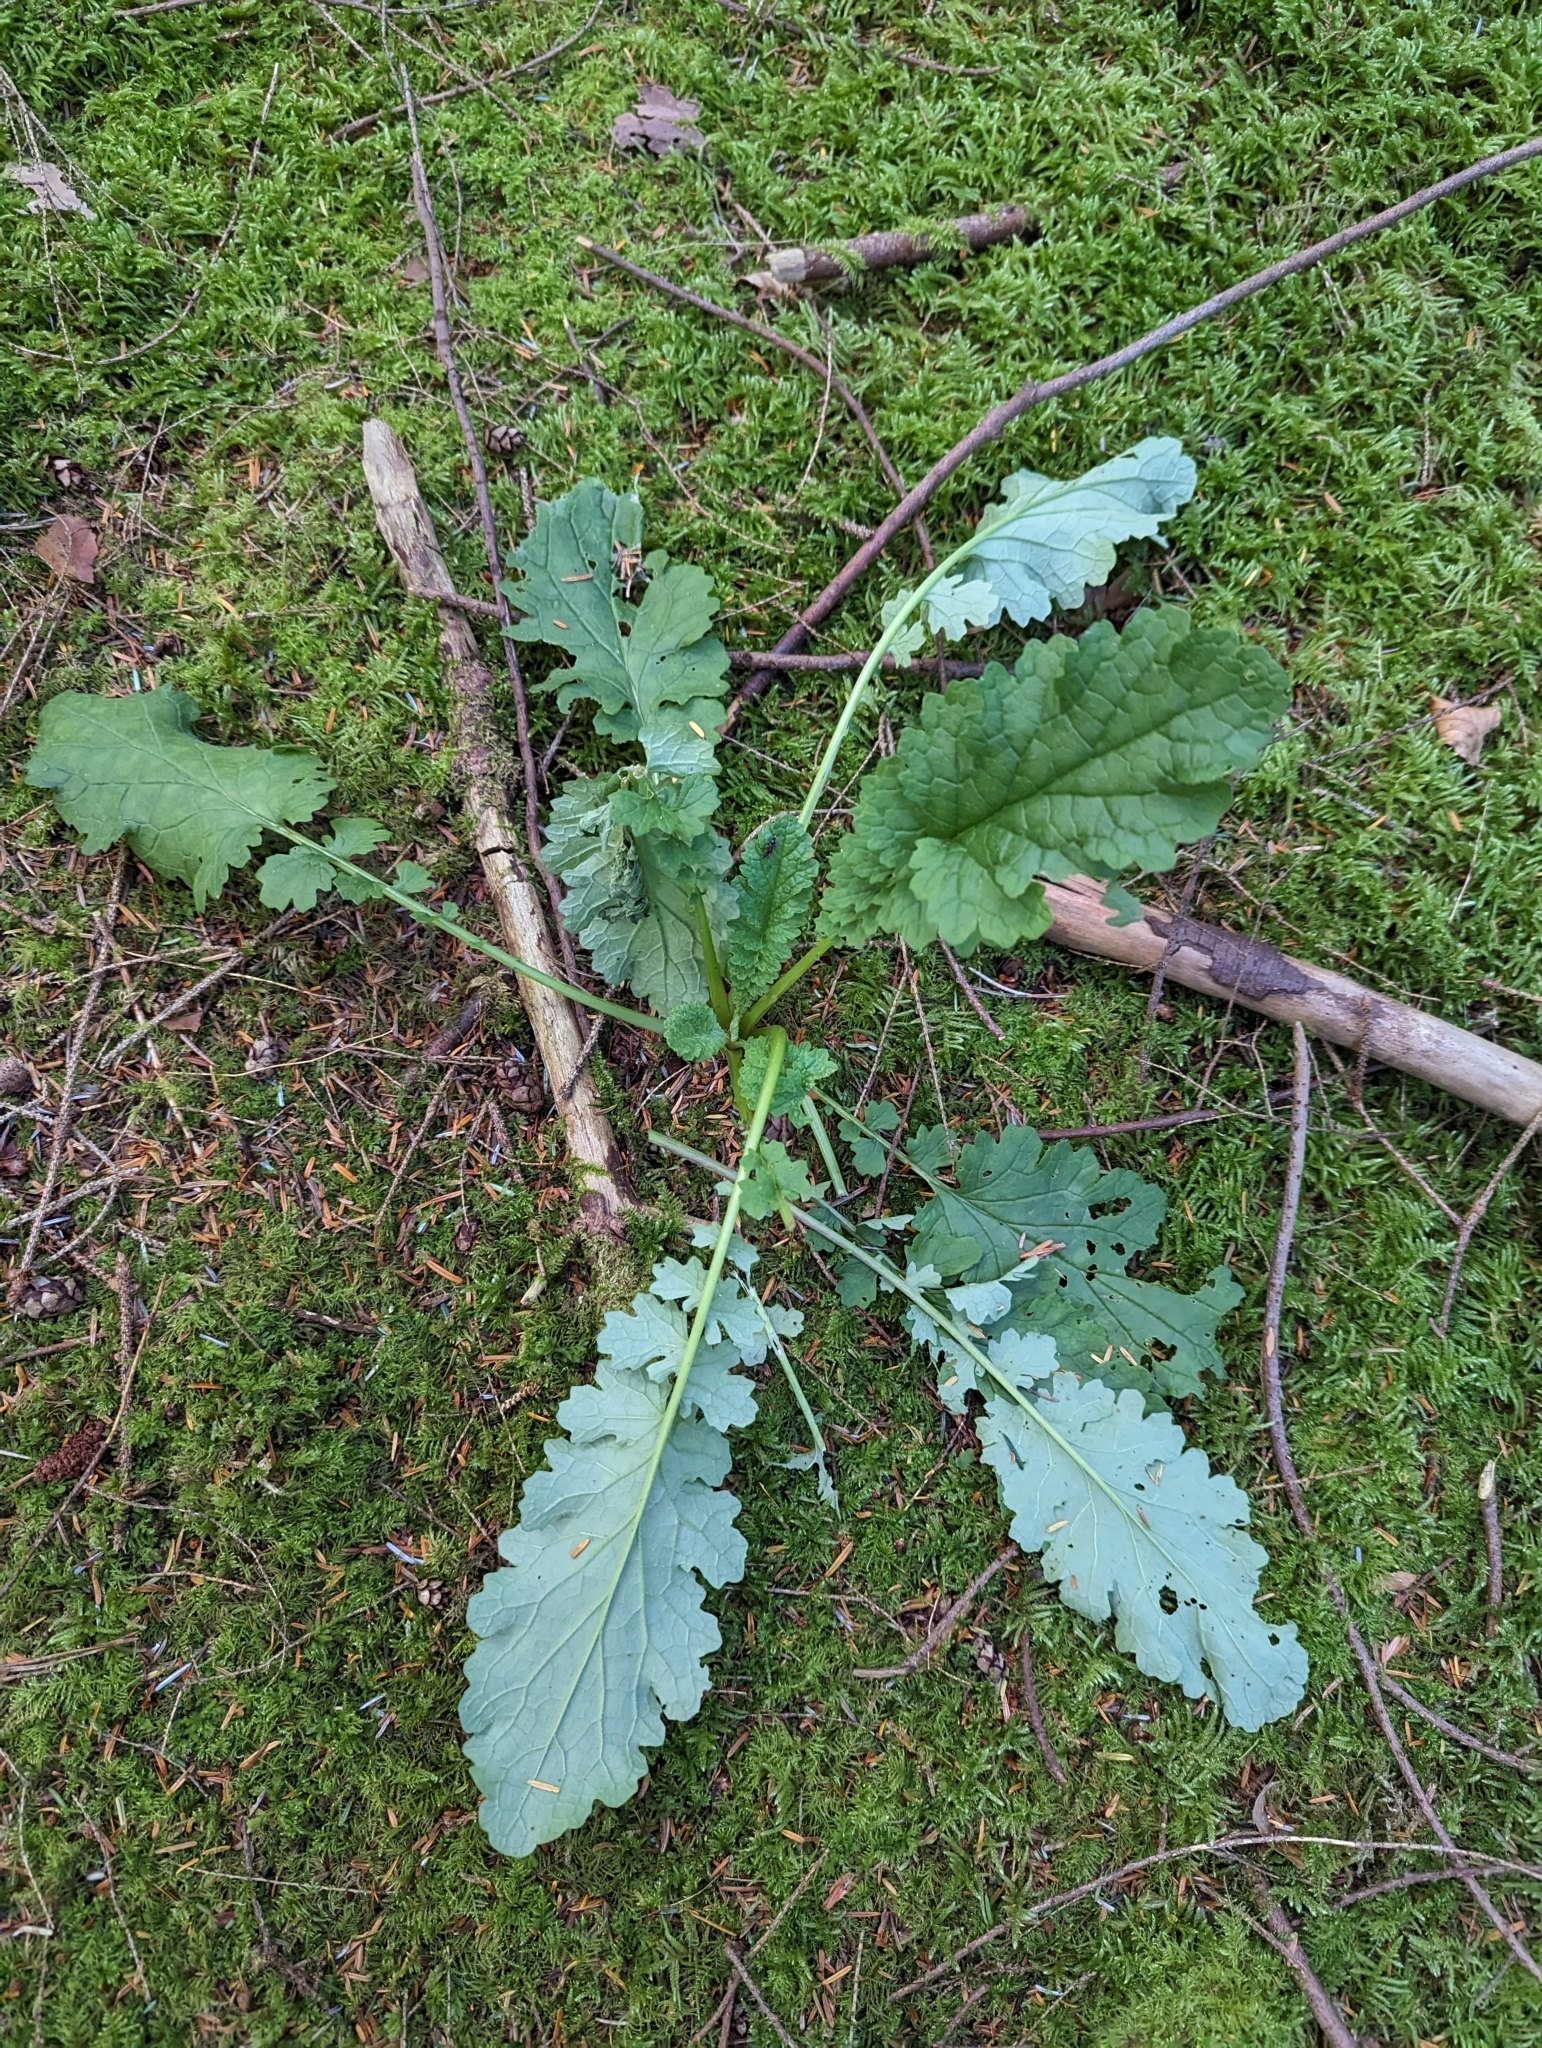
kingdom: Plantae
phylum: Tracheophyta
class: Magnoliopsida
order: Asterales
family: Asteraceae
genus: Jacobaea
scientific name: Jacobaea vulgaris
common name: Stinking willie
